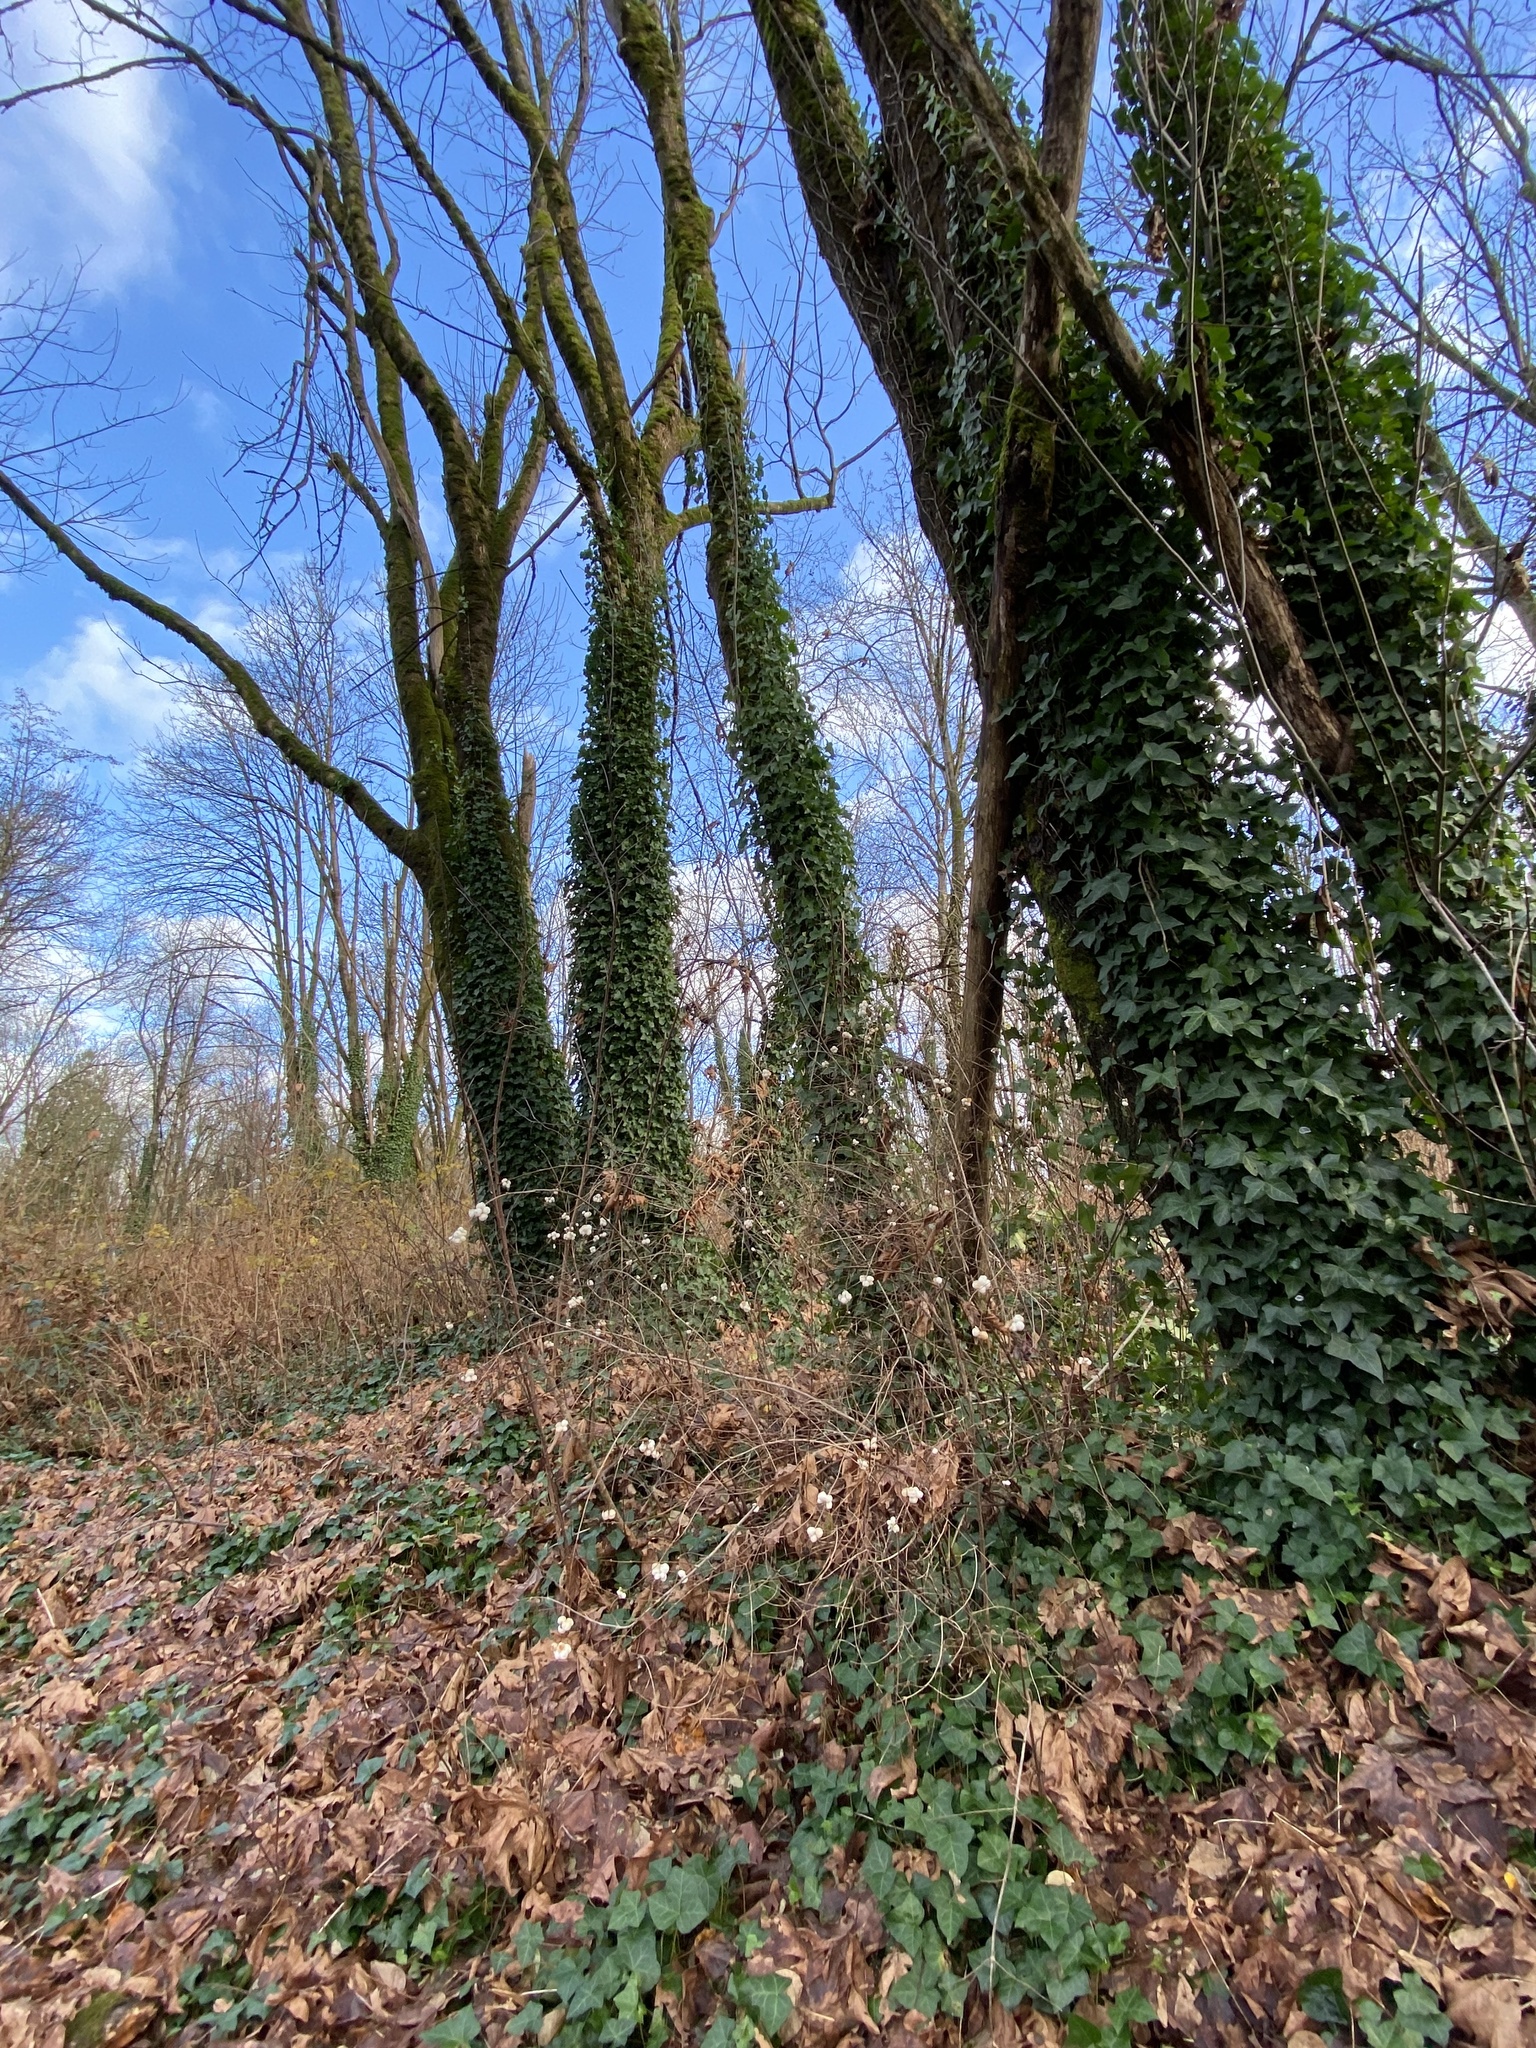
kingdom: Plantae
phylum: Tracheophyta
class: Magnoliopsida
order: Apiales
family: Araliaceae
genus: Hedera
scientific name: Hedera helix
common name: Ivy
